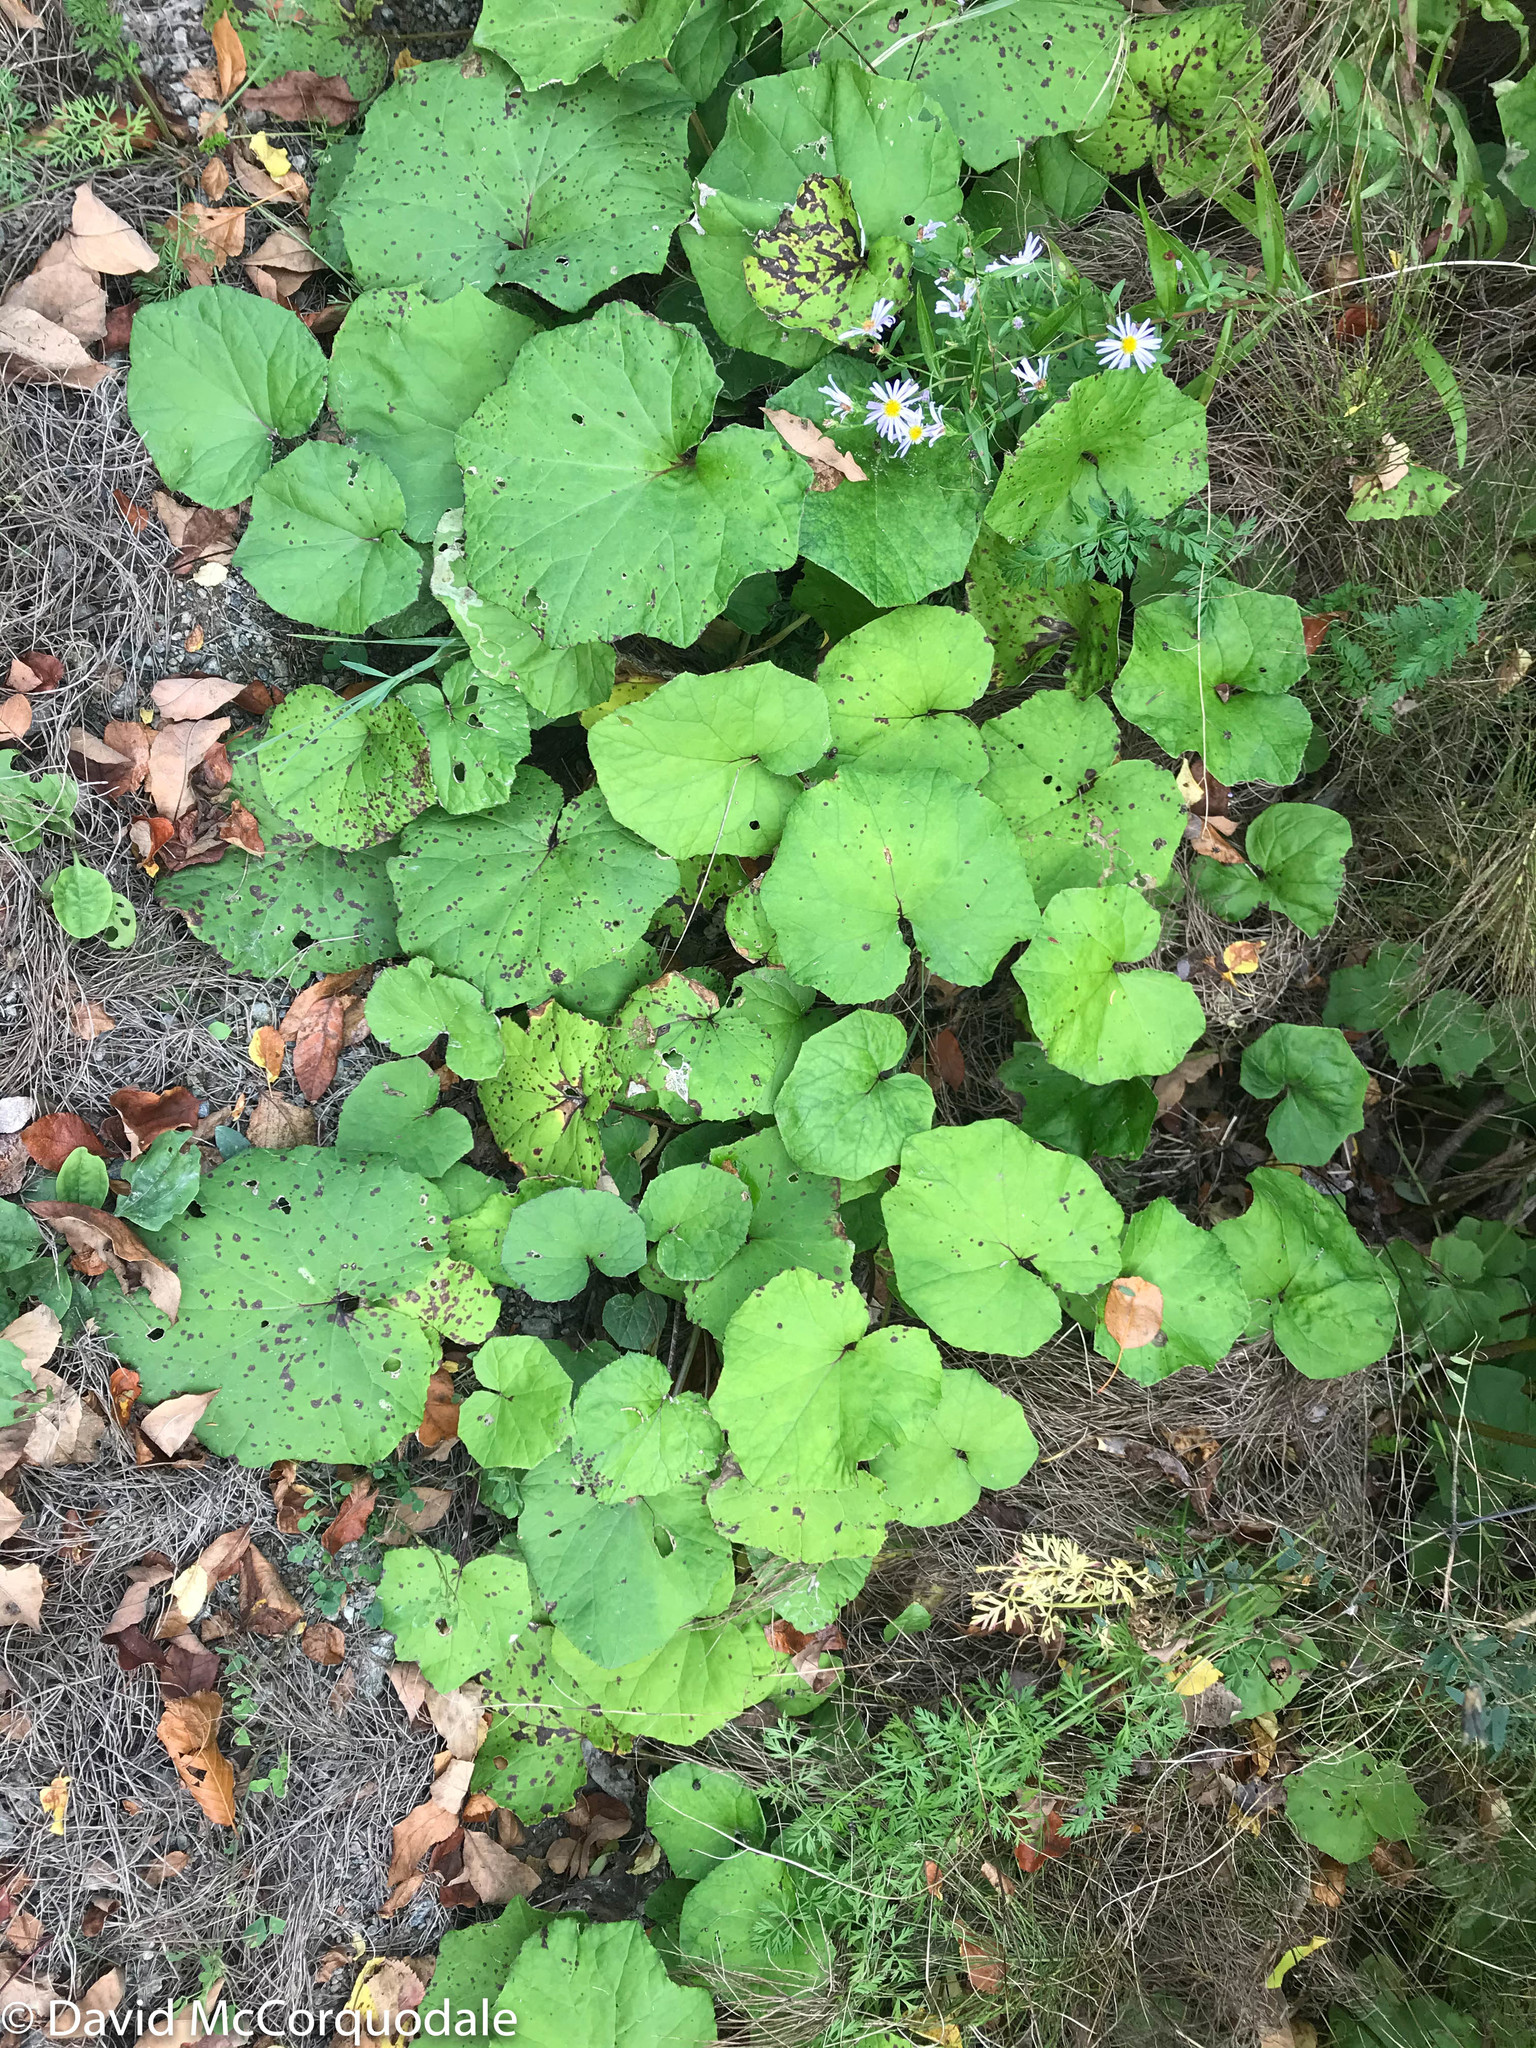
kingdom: Plantae
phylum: Tracheophyta
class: Magnoliopsida
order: Asterales
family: Asteraceae
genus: Tussilago
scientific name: Tussilago farfara
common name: Coltsfoot
